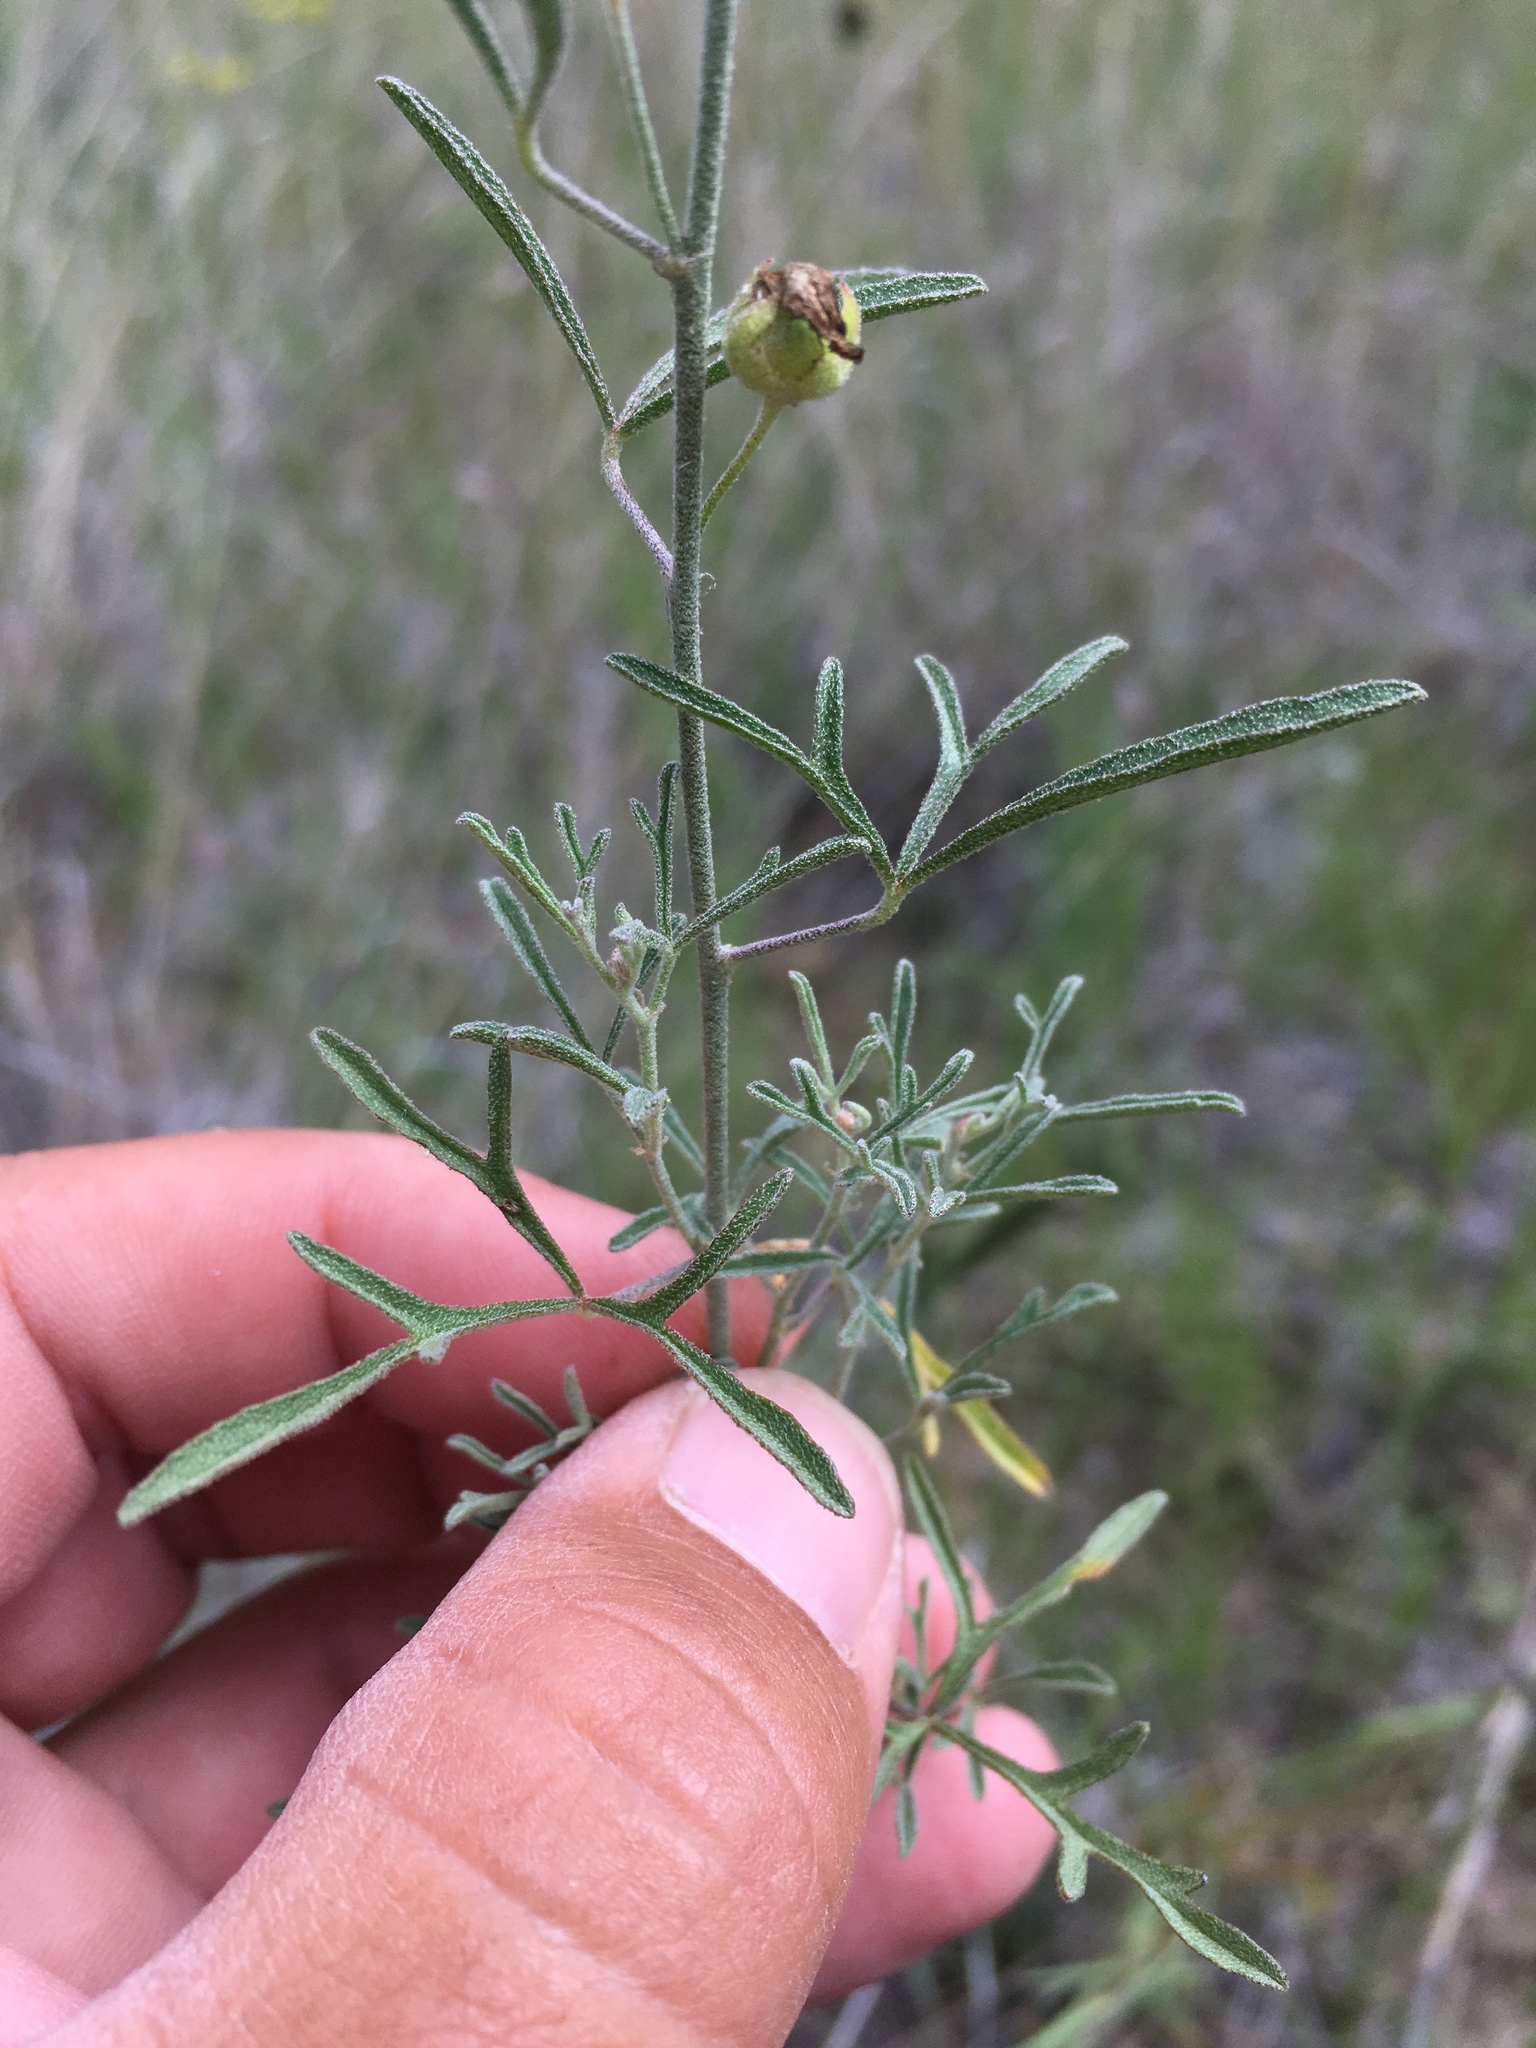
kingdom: Plantae
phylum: Tracheophyta
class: Magnoliopsida
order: Malvales
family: Malvaceae
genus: Sphaeralcea
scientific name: Sphaeralcea digitata
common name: Juniper-gobe-mallow
